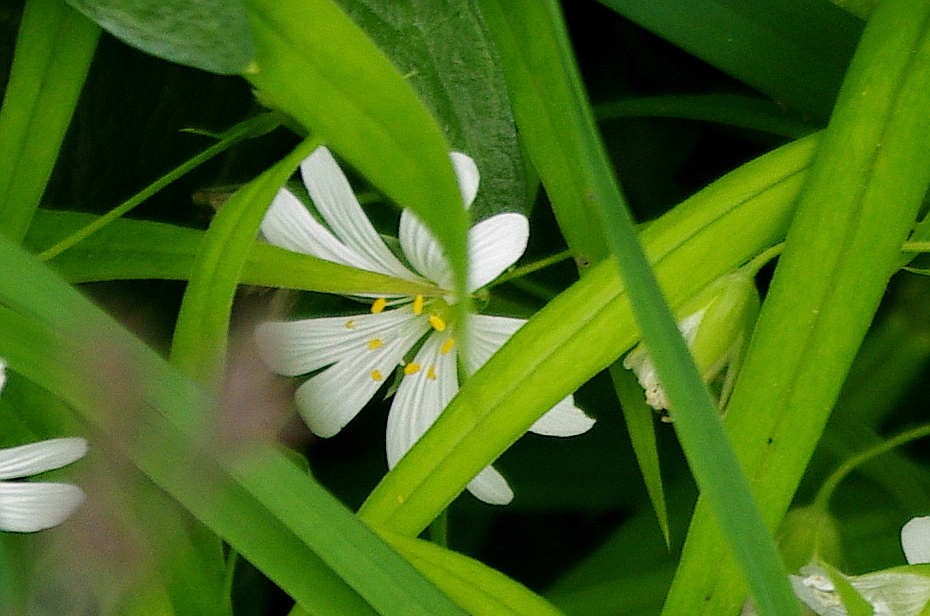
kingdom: Plantae
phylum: Tracheophyta
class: Magnoliopsida
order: Caryophyllales
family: Caryophyllaceae
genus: Rabelera
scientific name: Rabelera holostea
